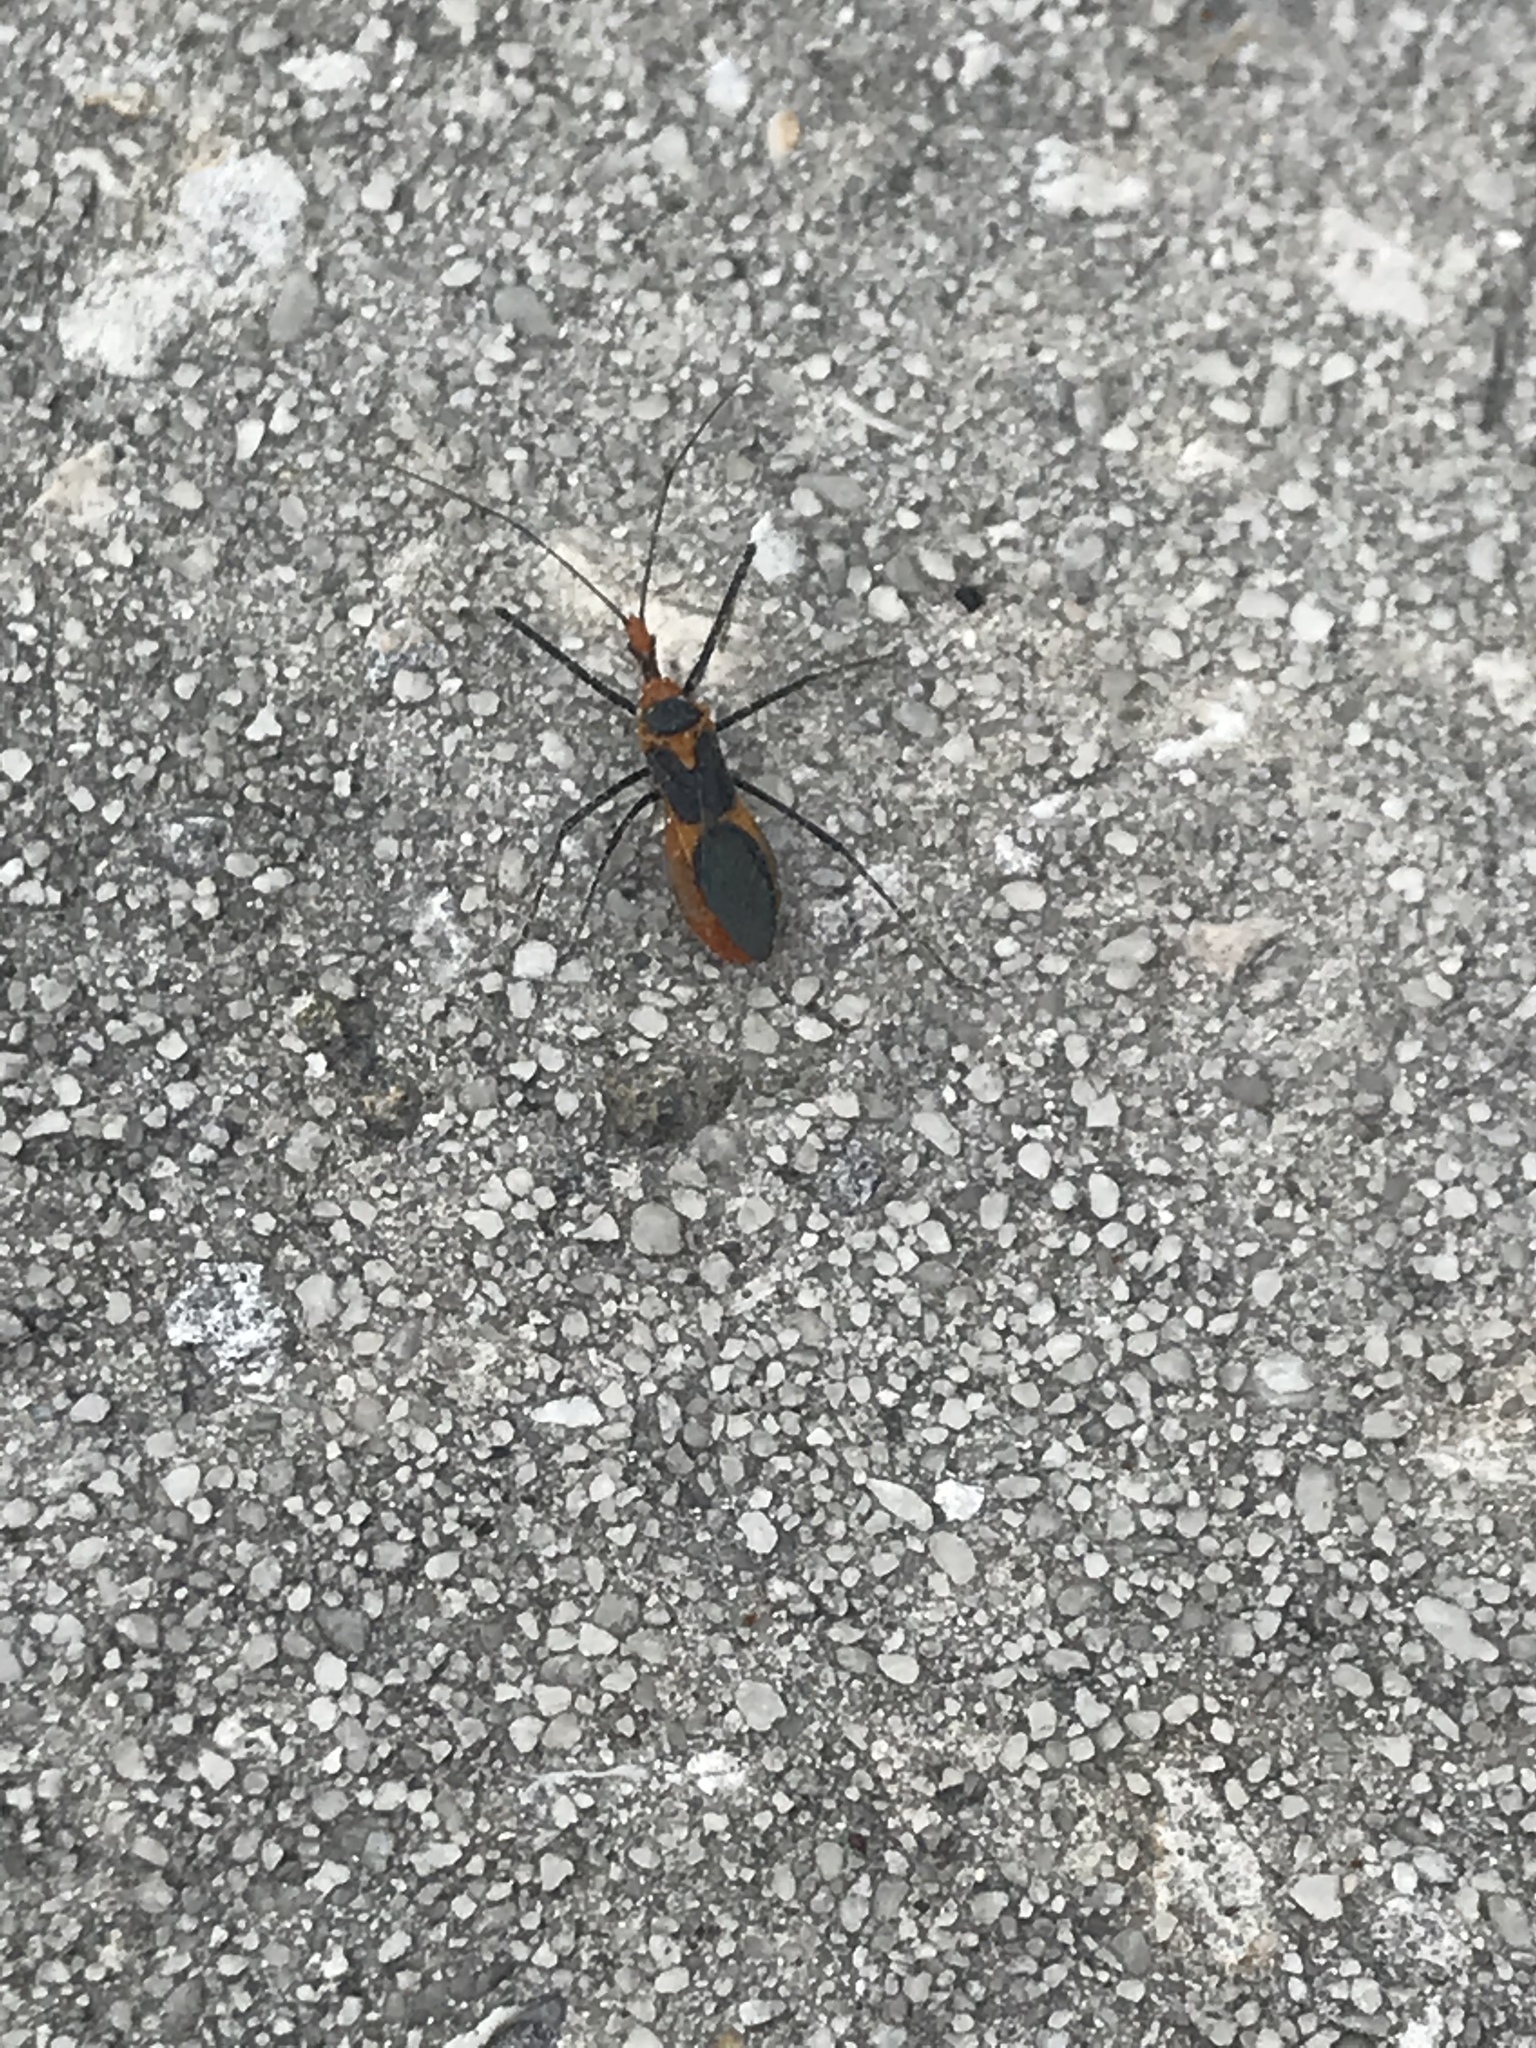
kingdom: Animalia
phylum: Arthropoda
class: Insecta
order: Hemiptera
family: Reduviidae
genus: Zelus
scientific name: Zelus longipes
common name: Milkweed assassin bug
